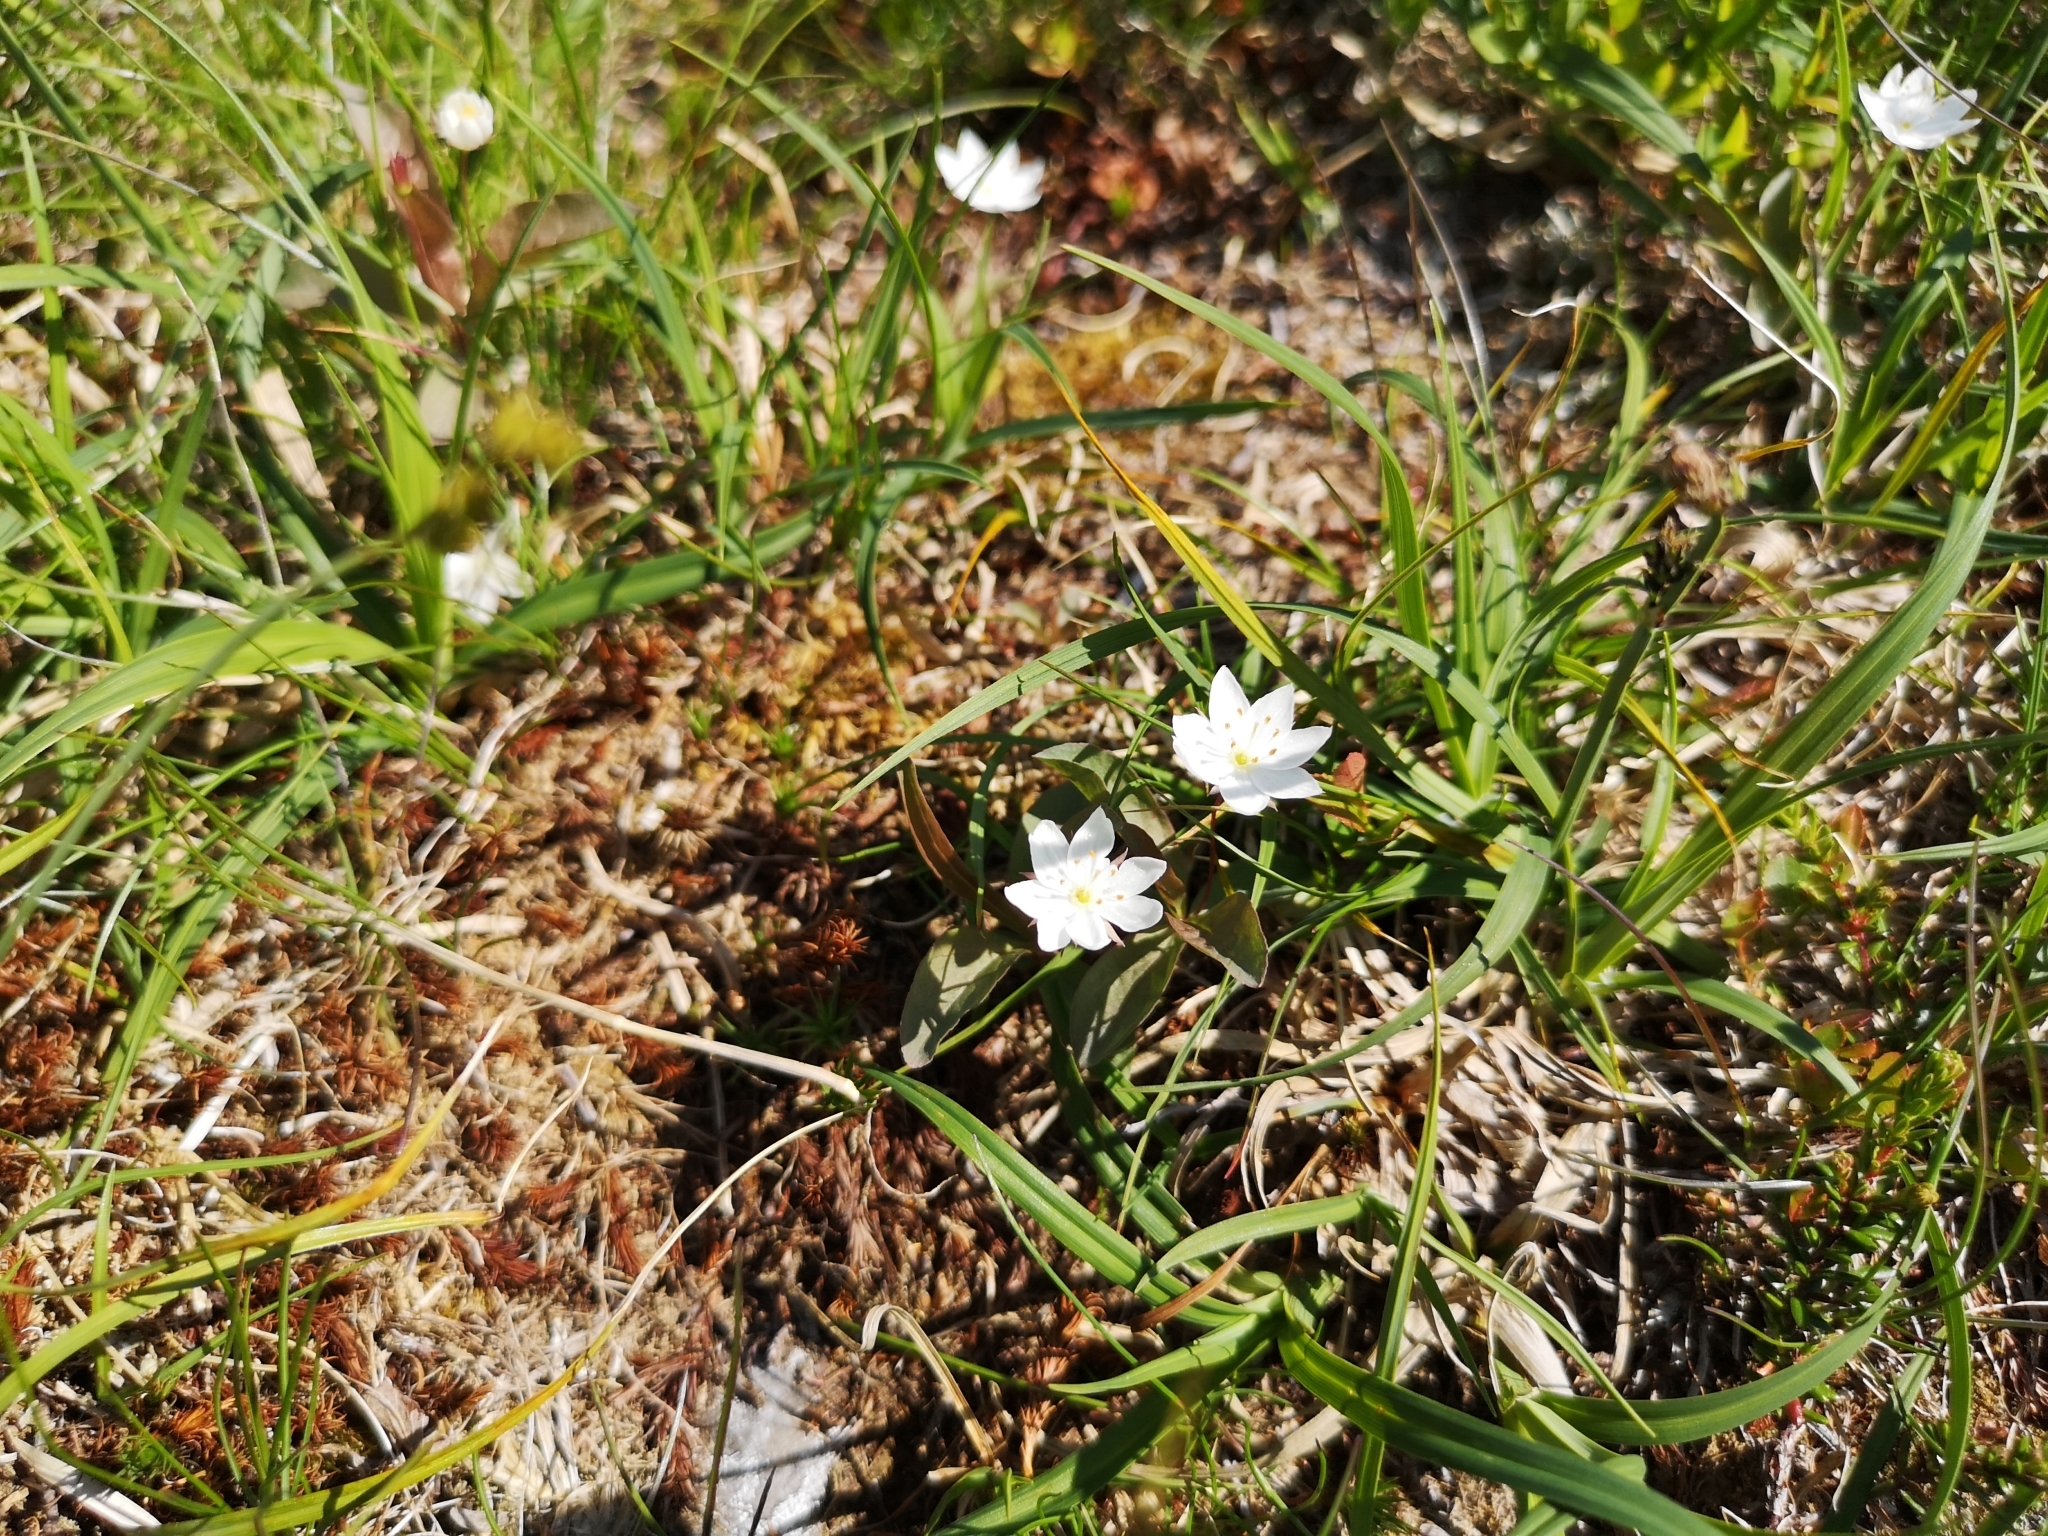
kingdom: Plantae
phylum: Tracheophyta
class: Magnoliopsida
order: Ericales
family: Primulaceae
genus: Lysimachia
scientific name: Lysimachia europaea
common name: Arctic starflower
